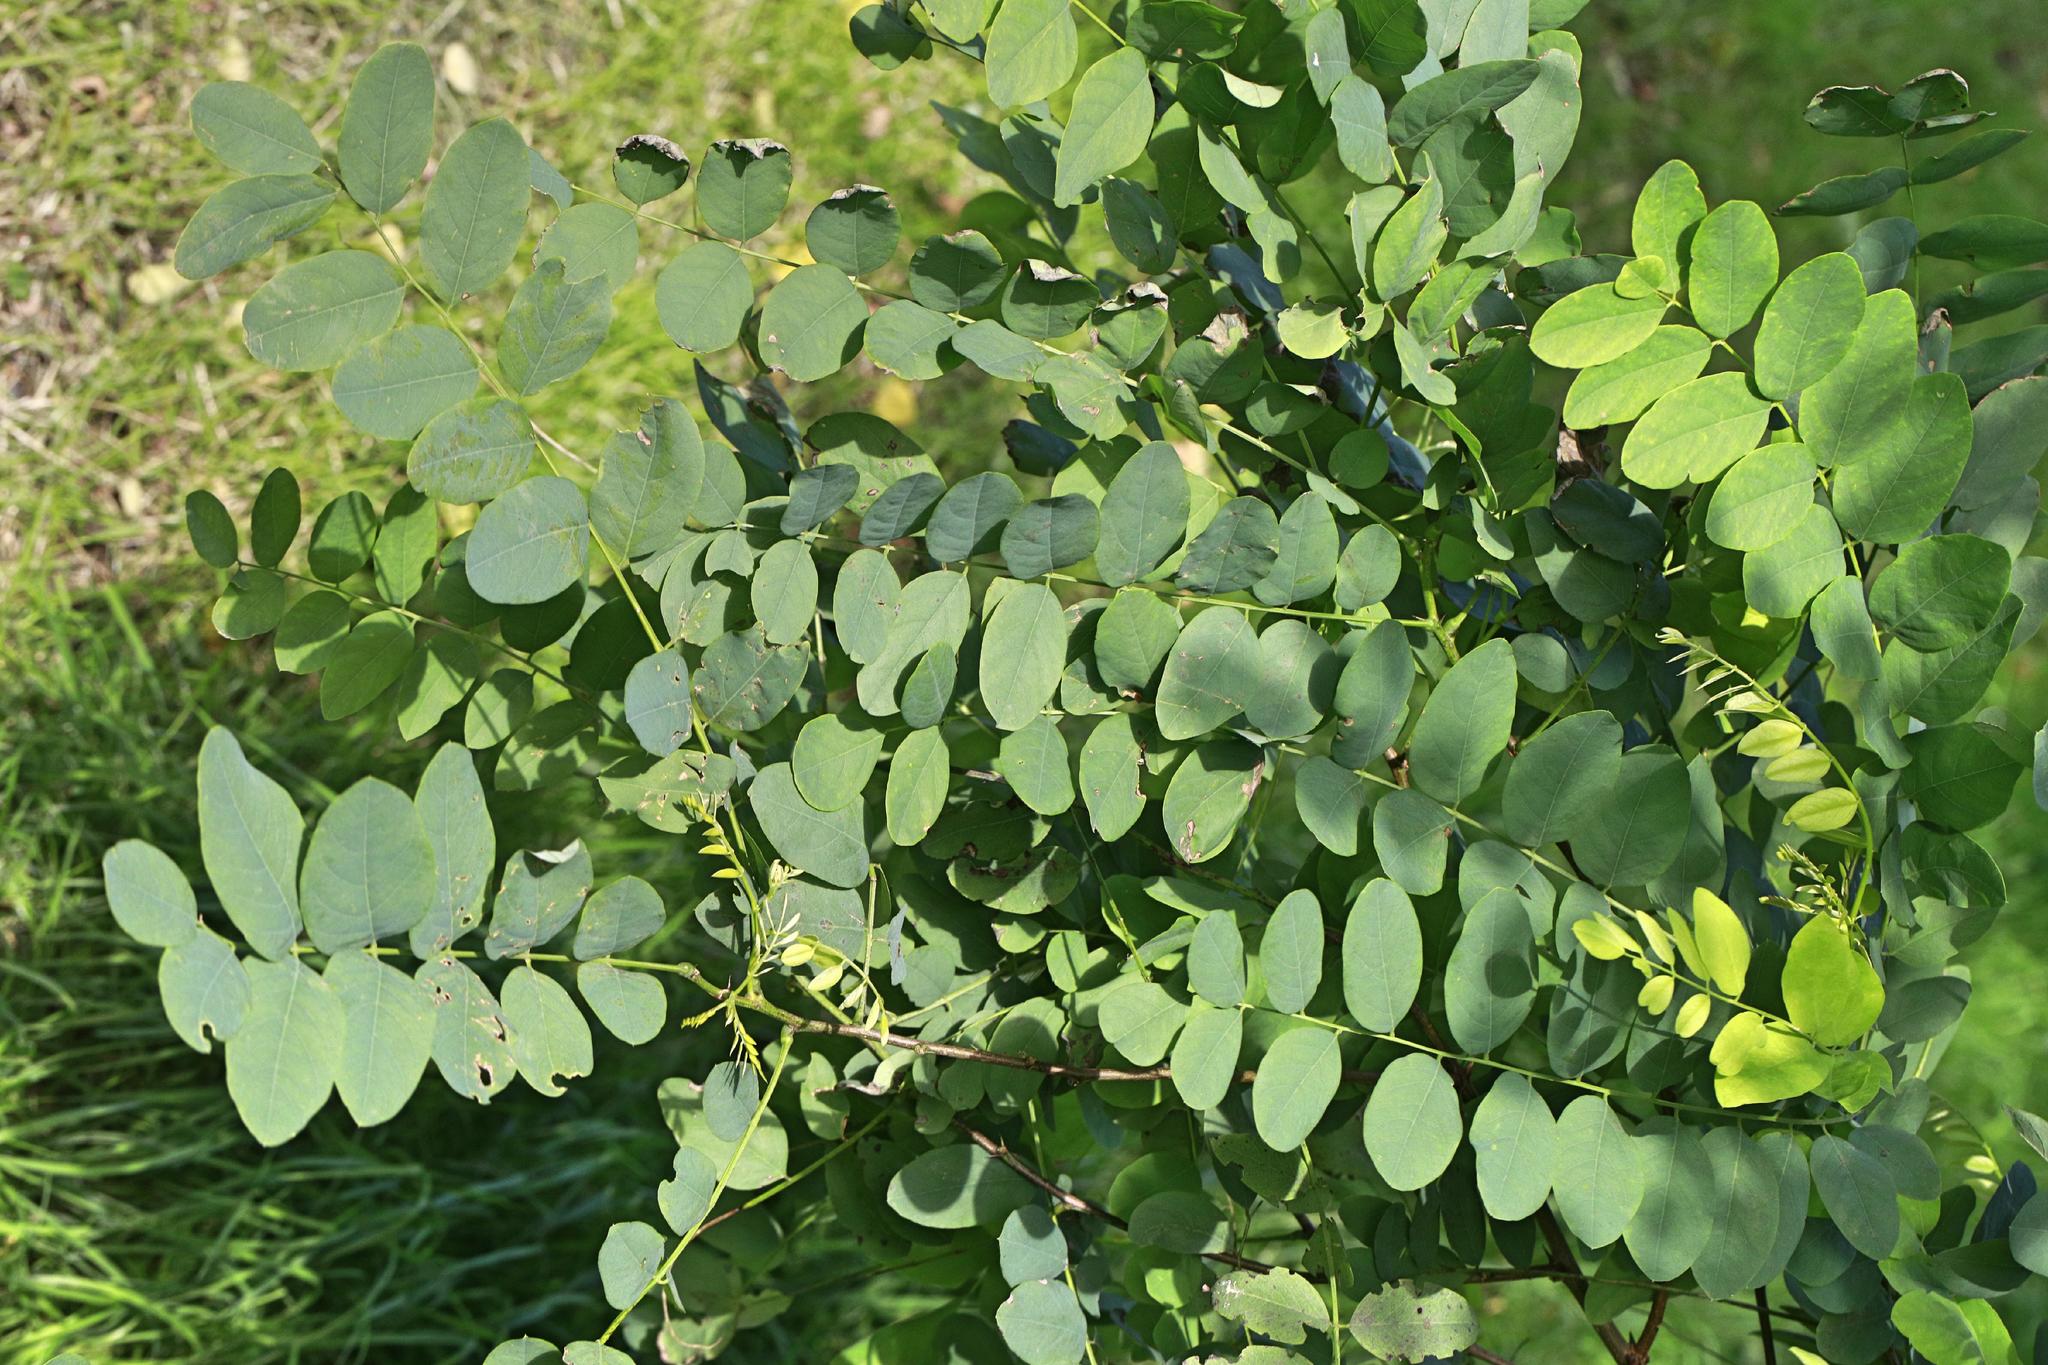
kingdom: Plantae
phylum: Tracheophyta
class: Magnoliopsida
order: Fabales
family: Fabaceae
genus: Robinia
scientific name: Robinia pseudoacacia
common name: Black locust
